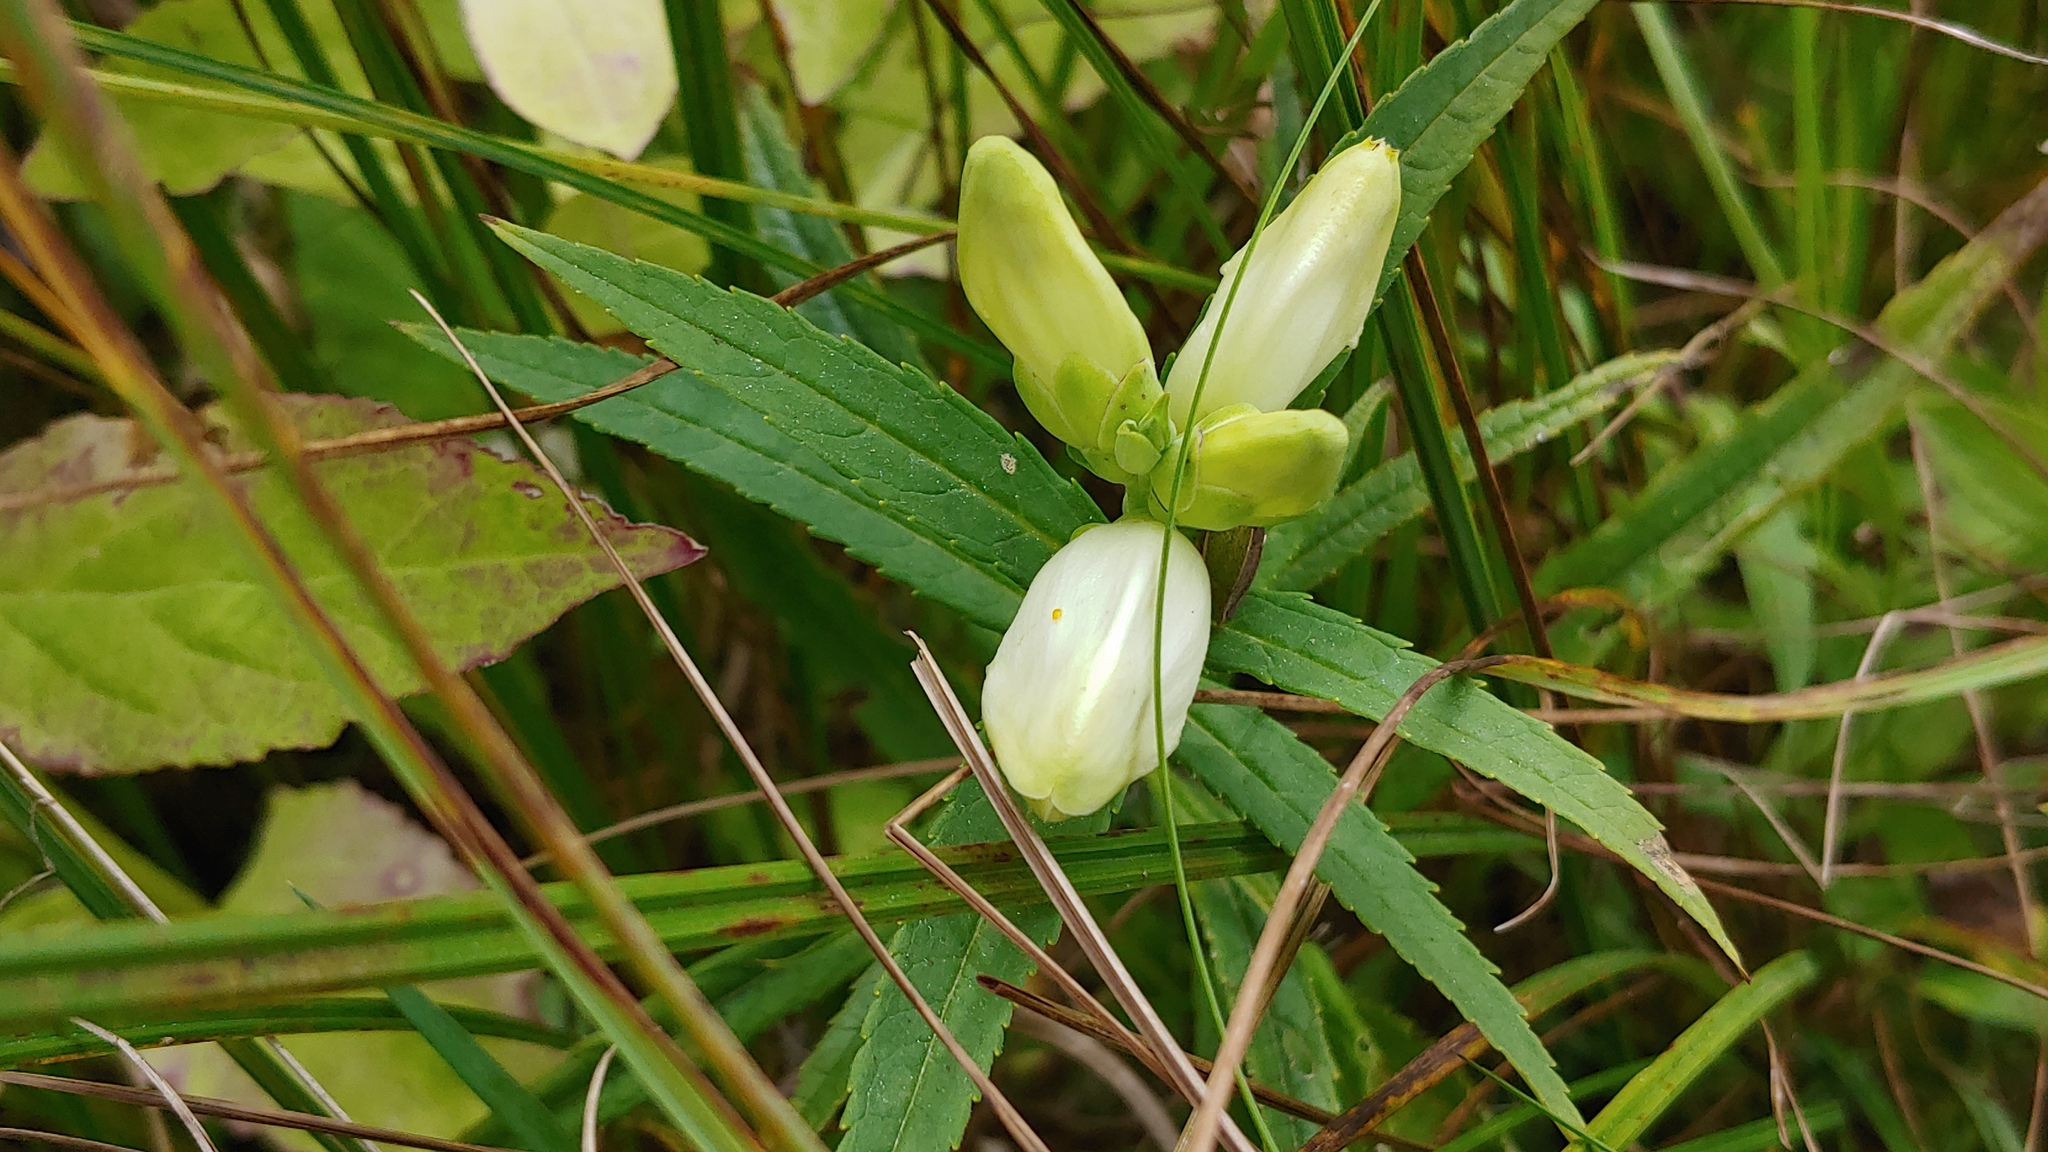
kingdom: Plantae
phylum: Tracheophyta
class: Magnoliopsida
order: Lamiales
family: Plantaginaceae
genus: Chelone
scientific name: Chelone glabra
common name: Snakehead
